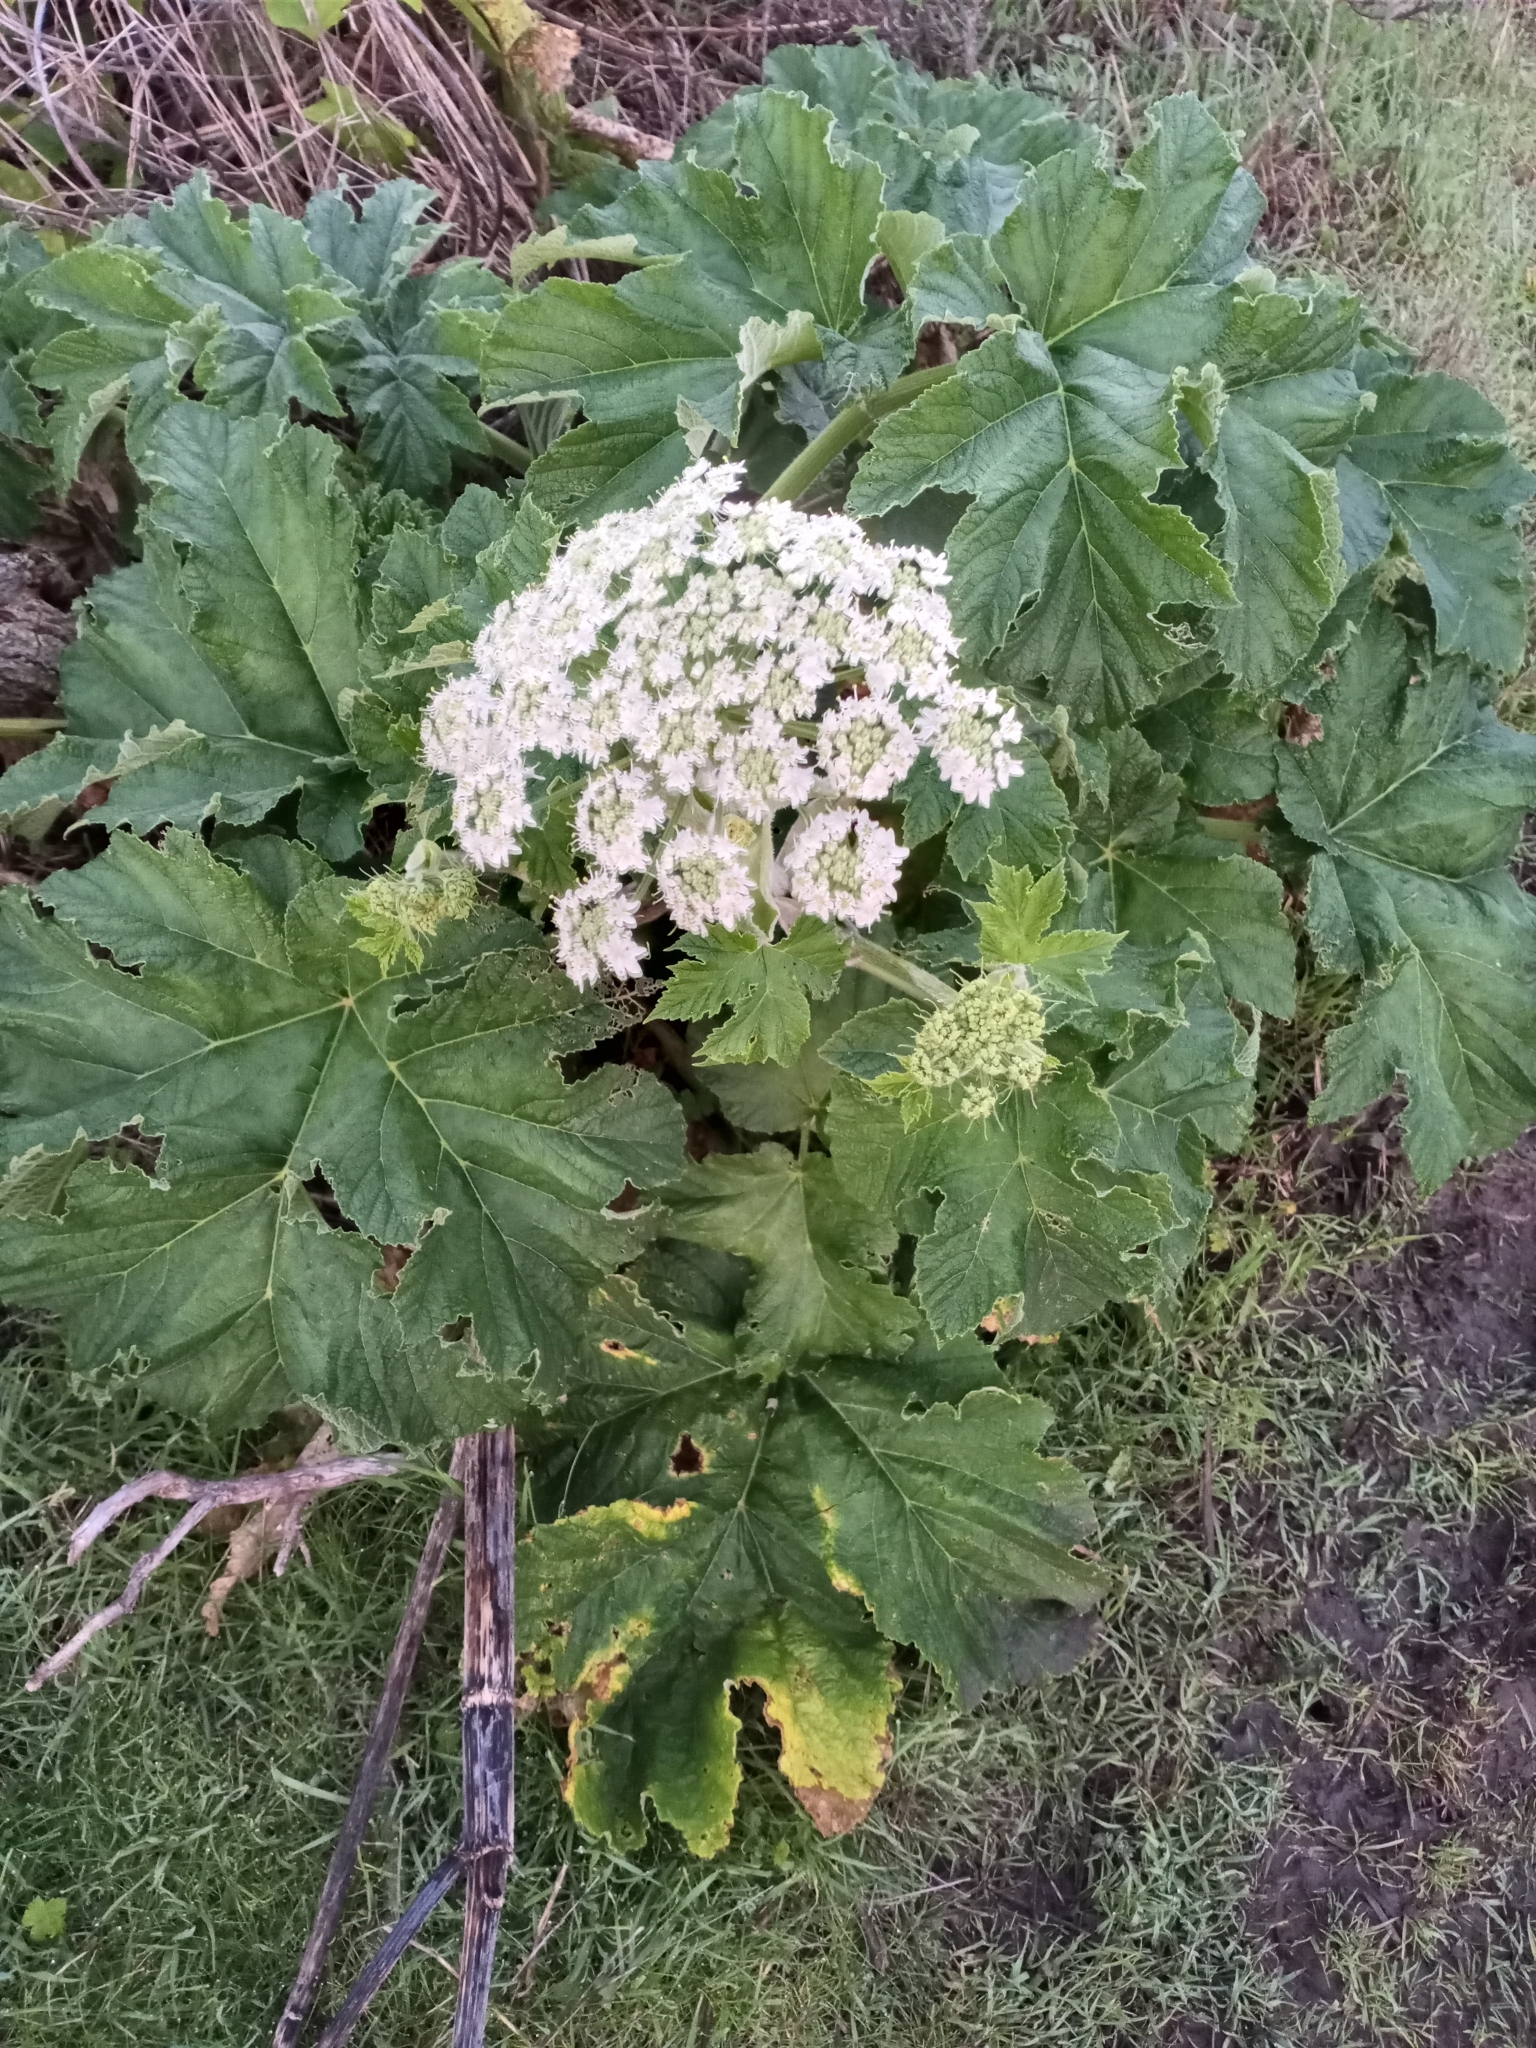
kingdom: Plantae
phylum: Tracheophyta
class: Magnoliopsida
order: Apiales
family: Apiaceae
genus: Heracleum
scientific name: Heracleum maximum
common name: American cow parsnip
